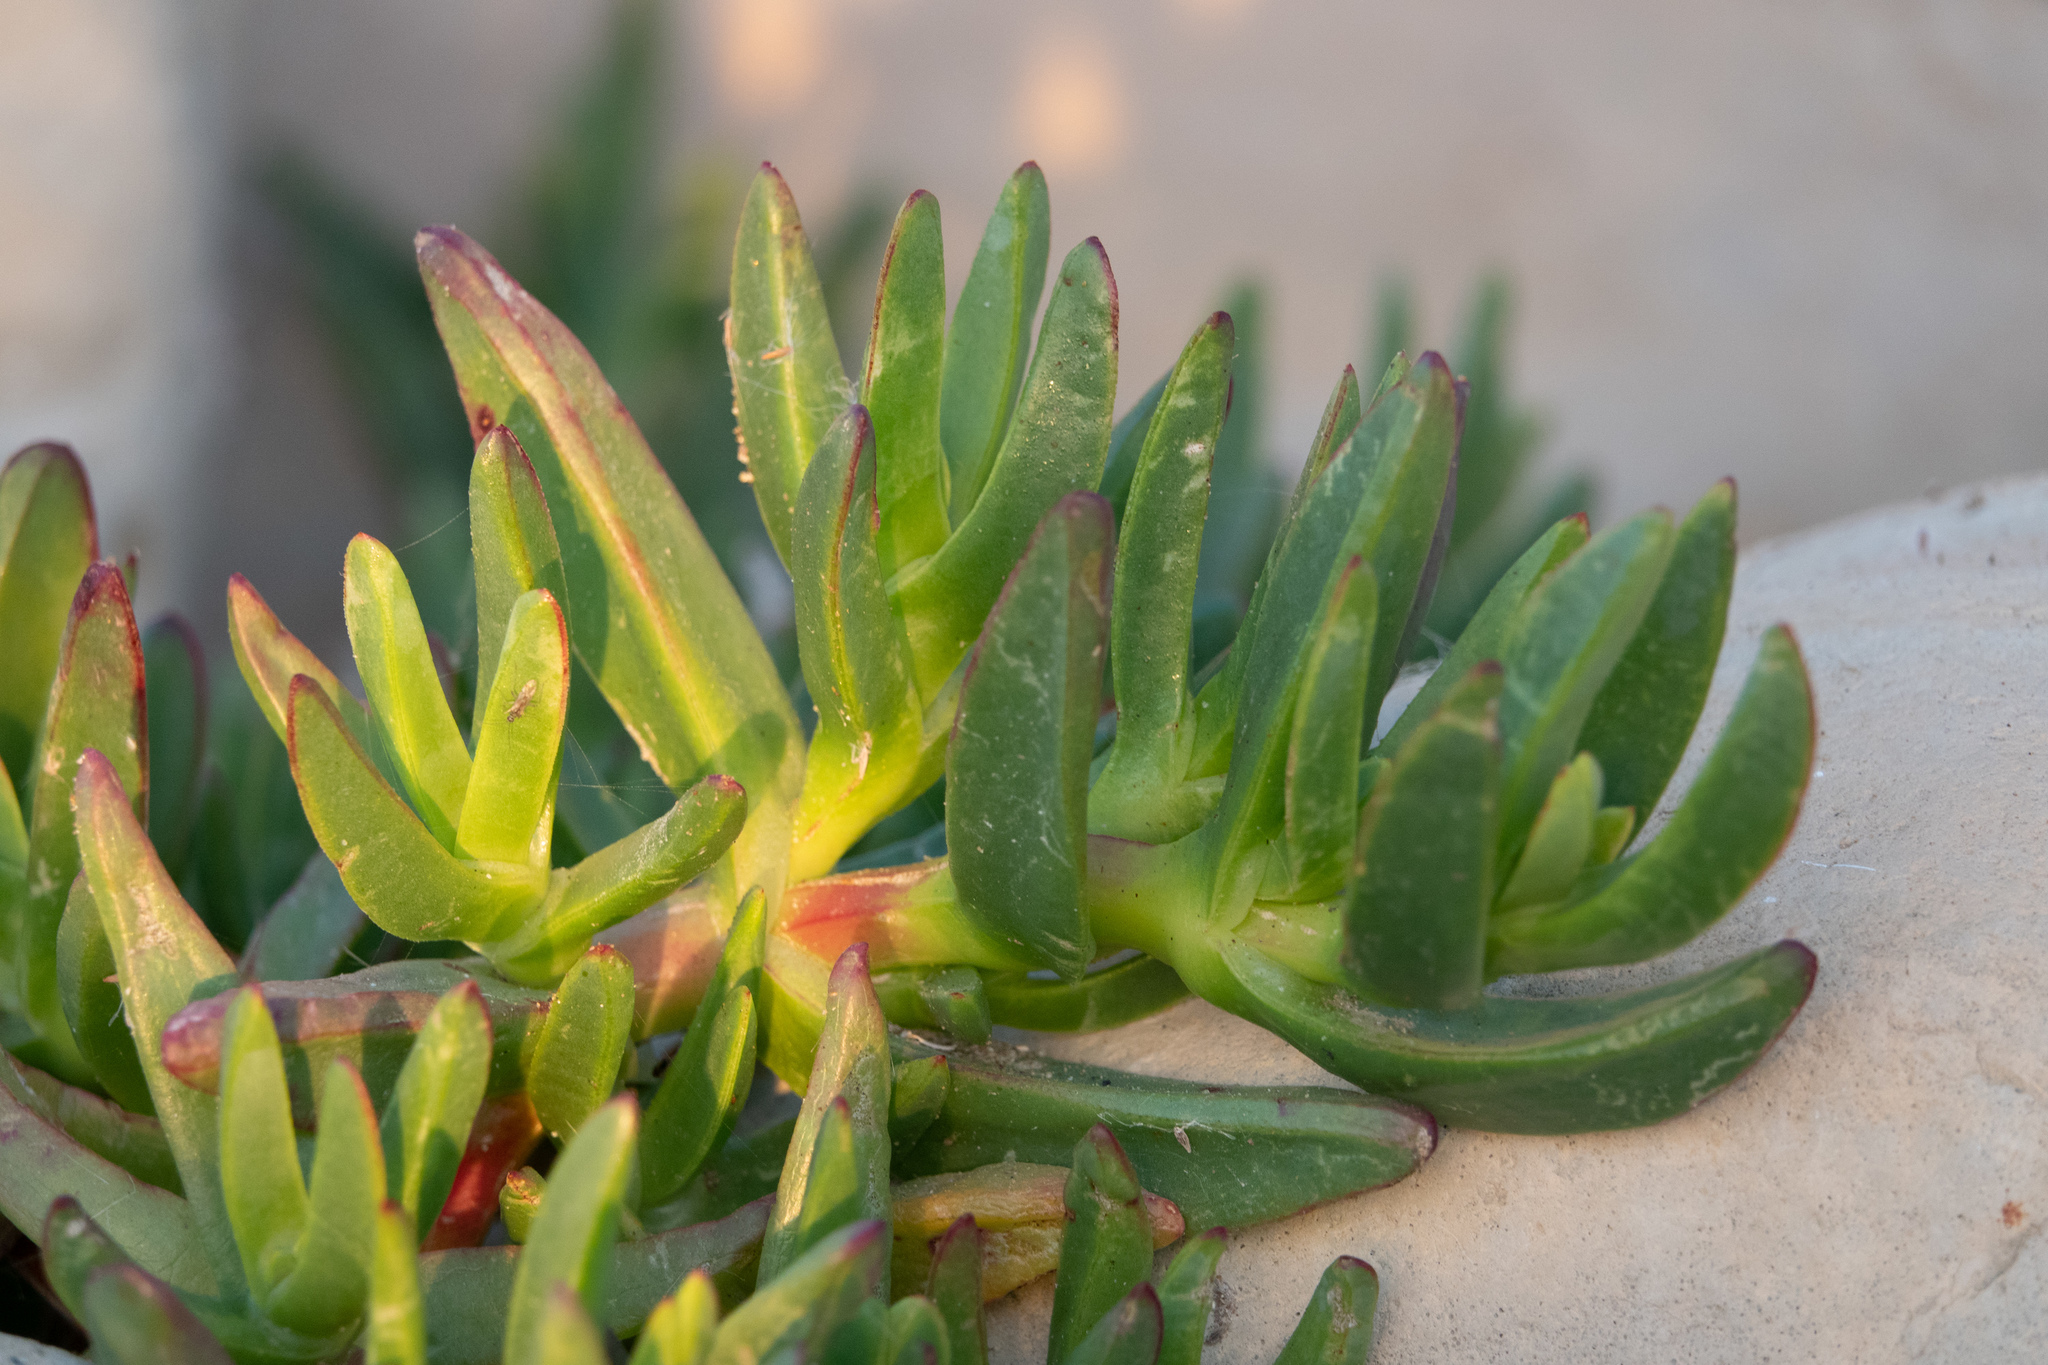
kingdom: Plantae
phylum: Tracheophyta
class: Magnoliopsida
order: Caryophyllales
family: Aizoaceae
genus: Carpobrotus
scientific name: Carpobrotus edulis
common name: Hottentot-fig
